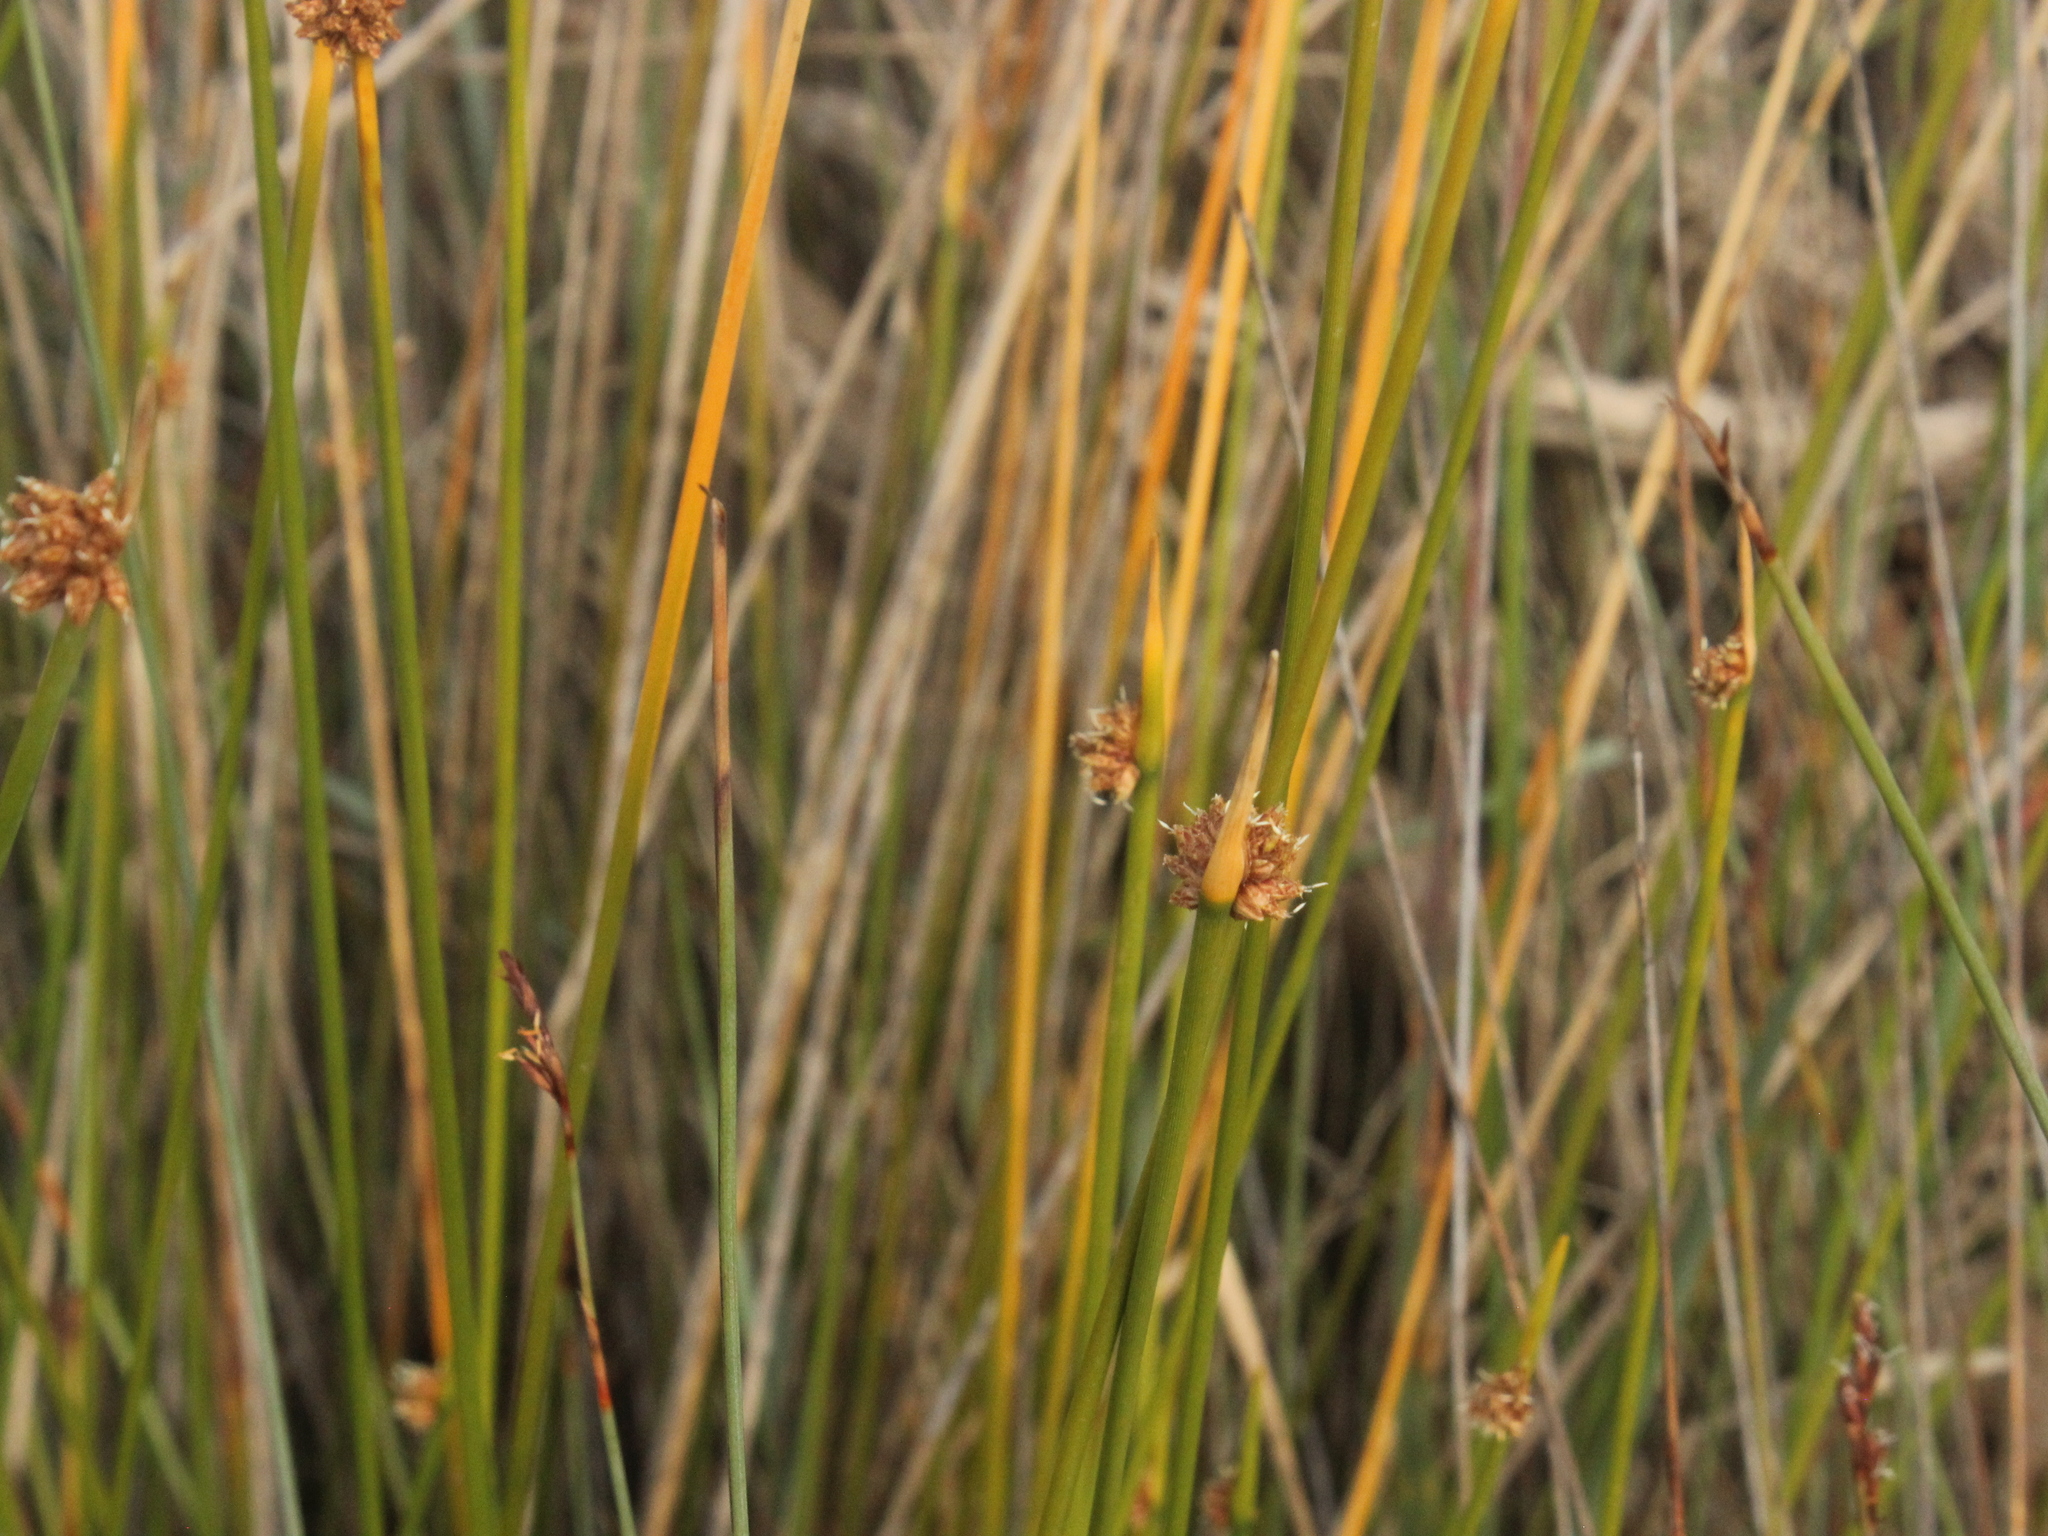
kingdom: Plantae
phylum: Tracheophyta
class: Liliopsida
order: Poales
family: Cyperaceae
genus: Ficinia
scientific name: Ficinia nodosa
